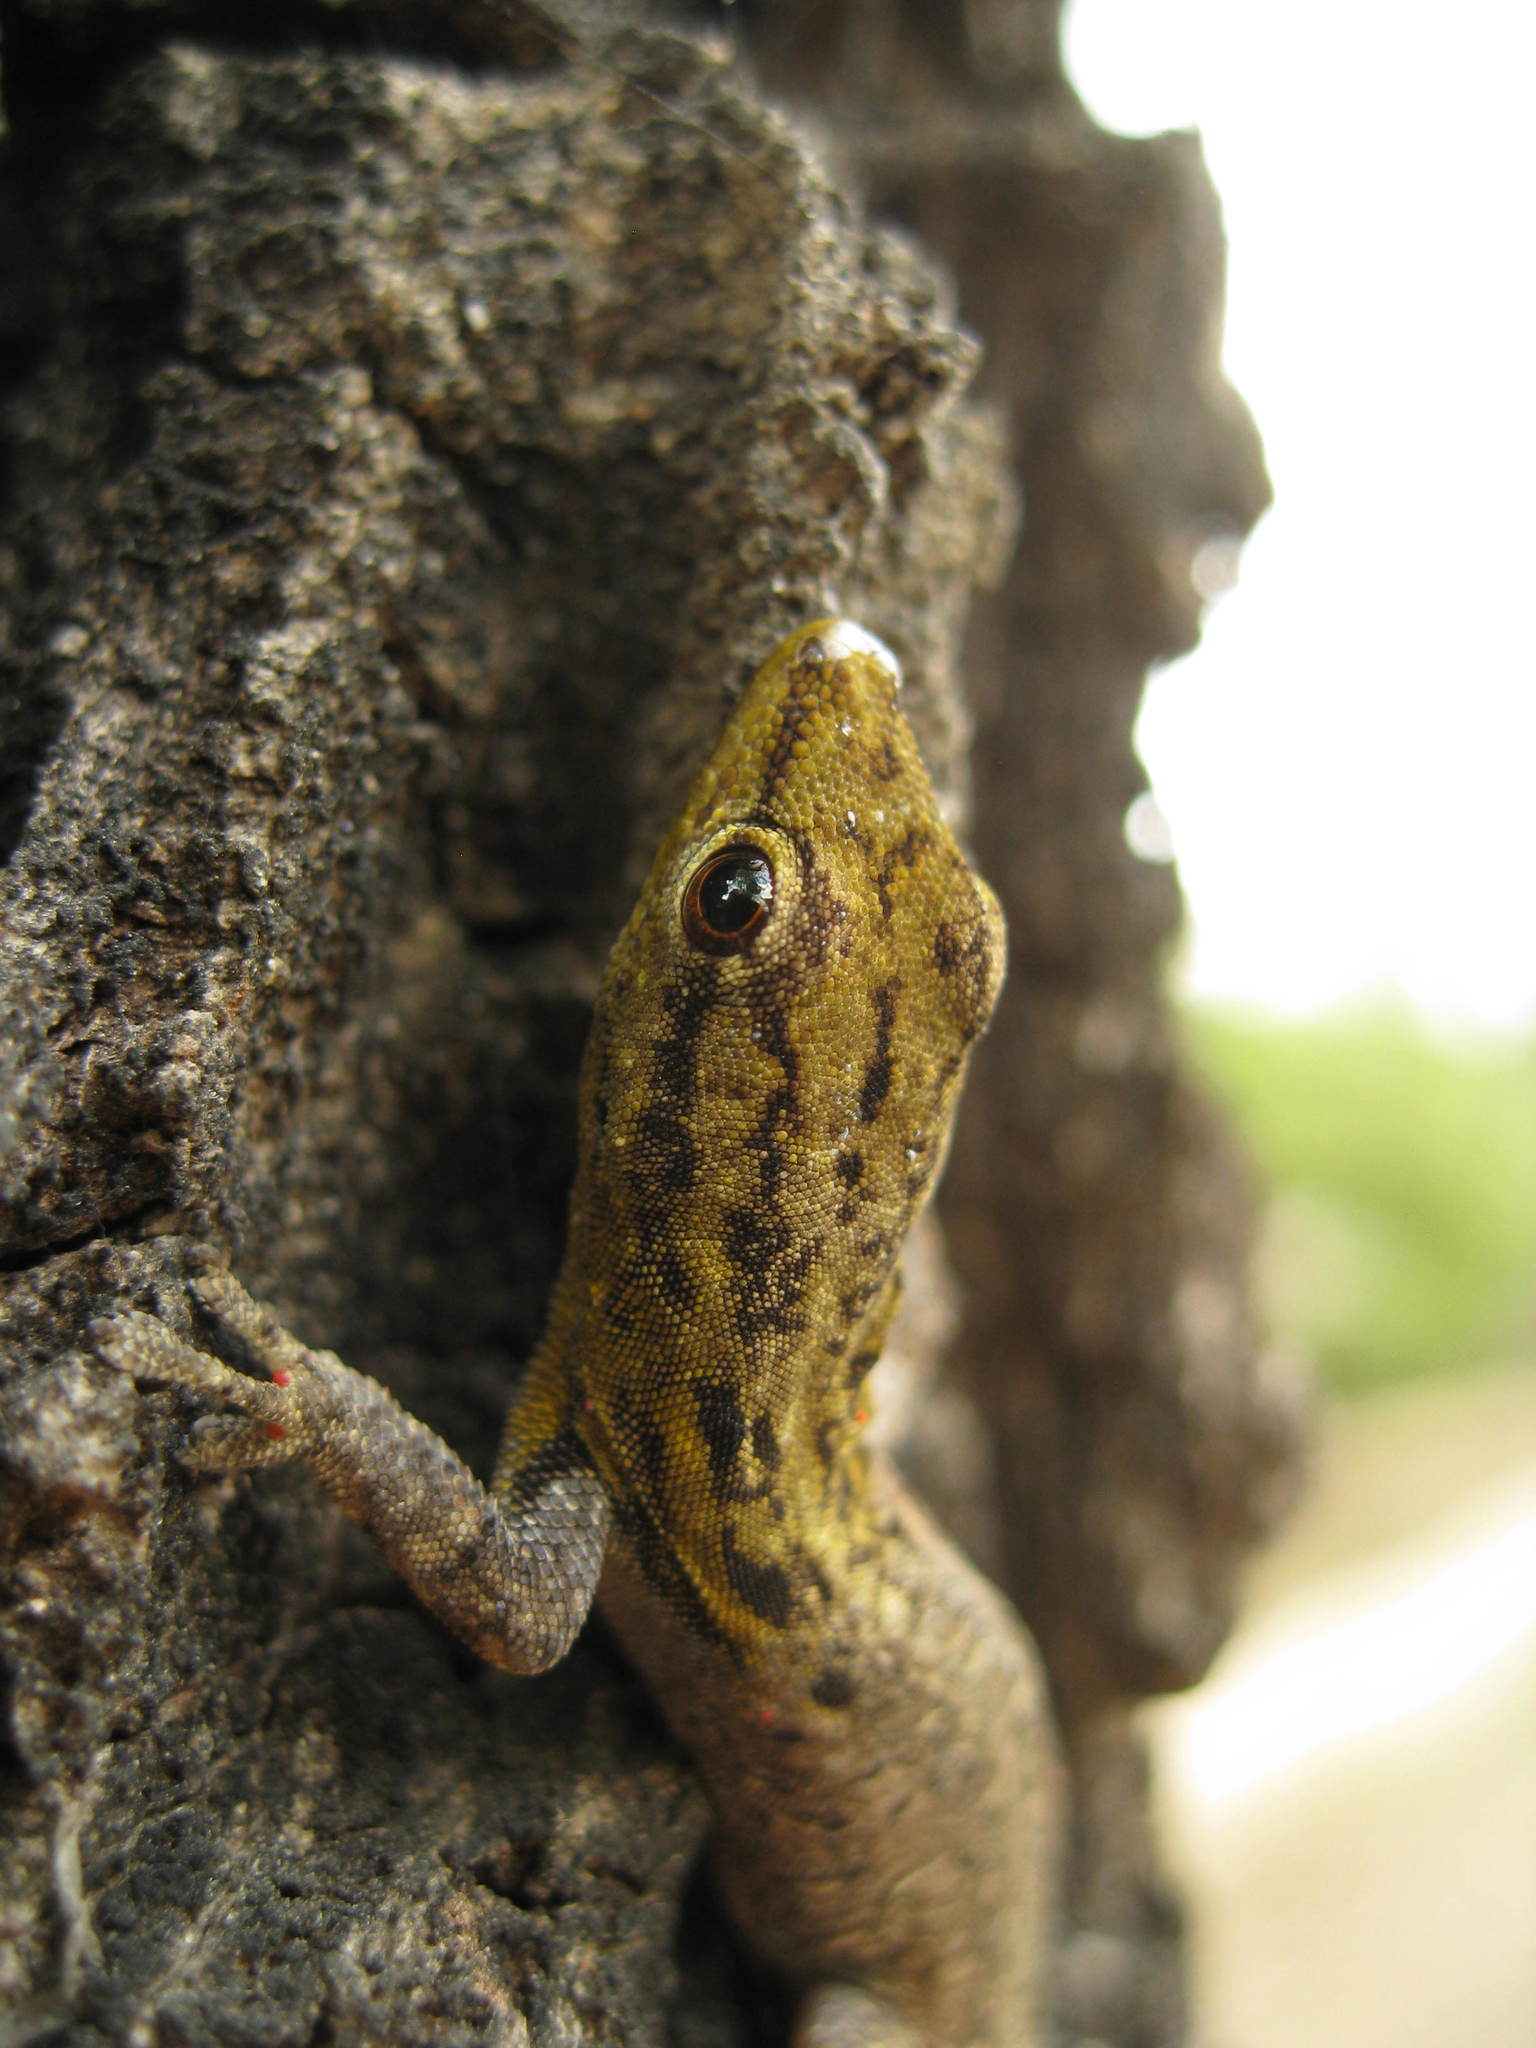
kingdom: Animalia
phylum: Chordata
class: Squamata
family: Gekkonidae
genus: Lygodactylus
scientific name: Lygodactylus picturatus
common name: Painted dwarf gecko
